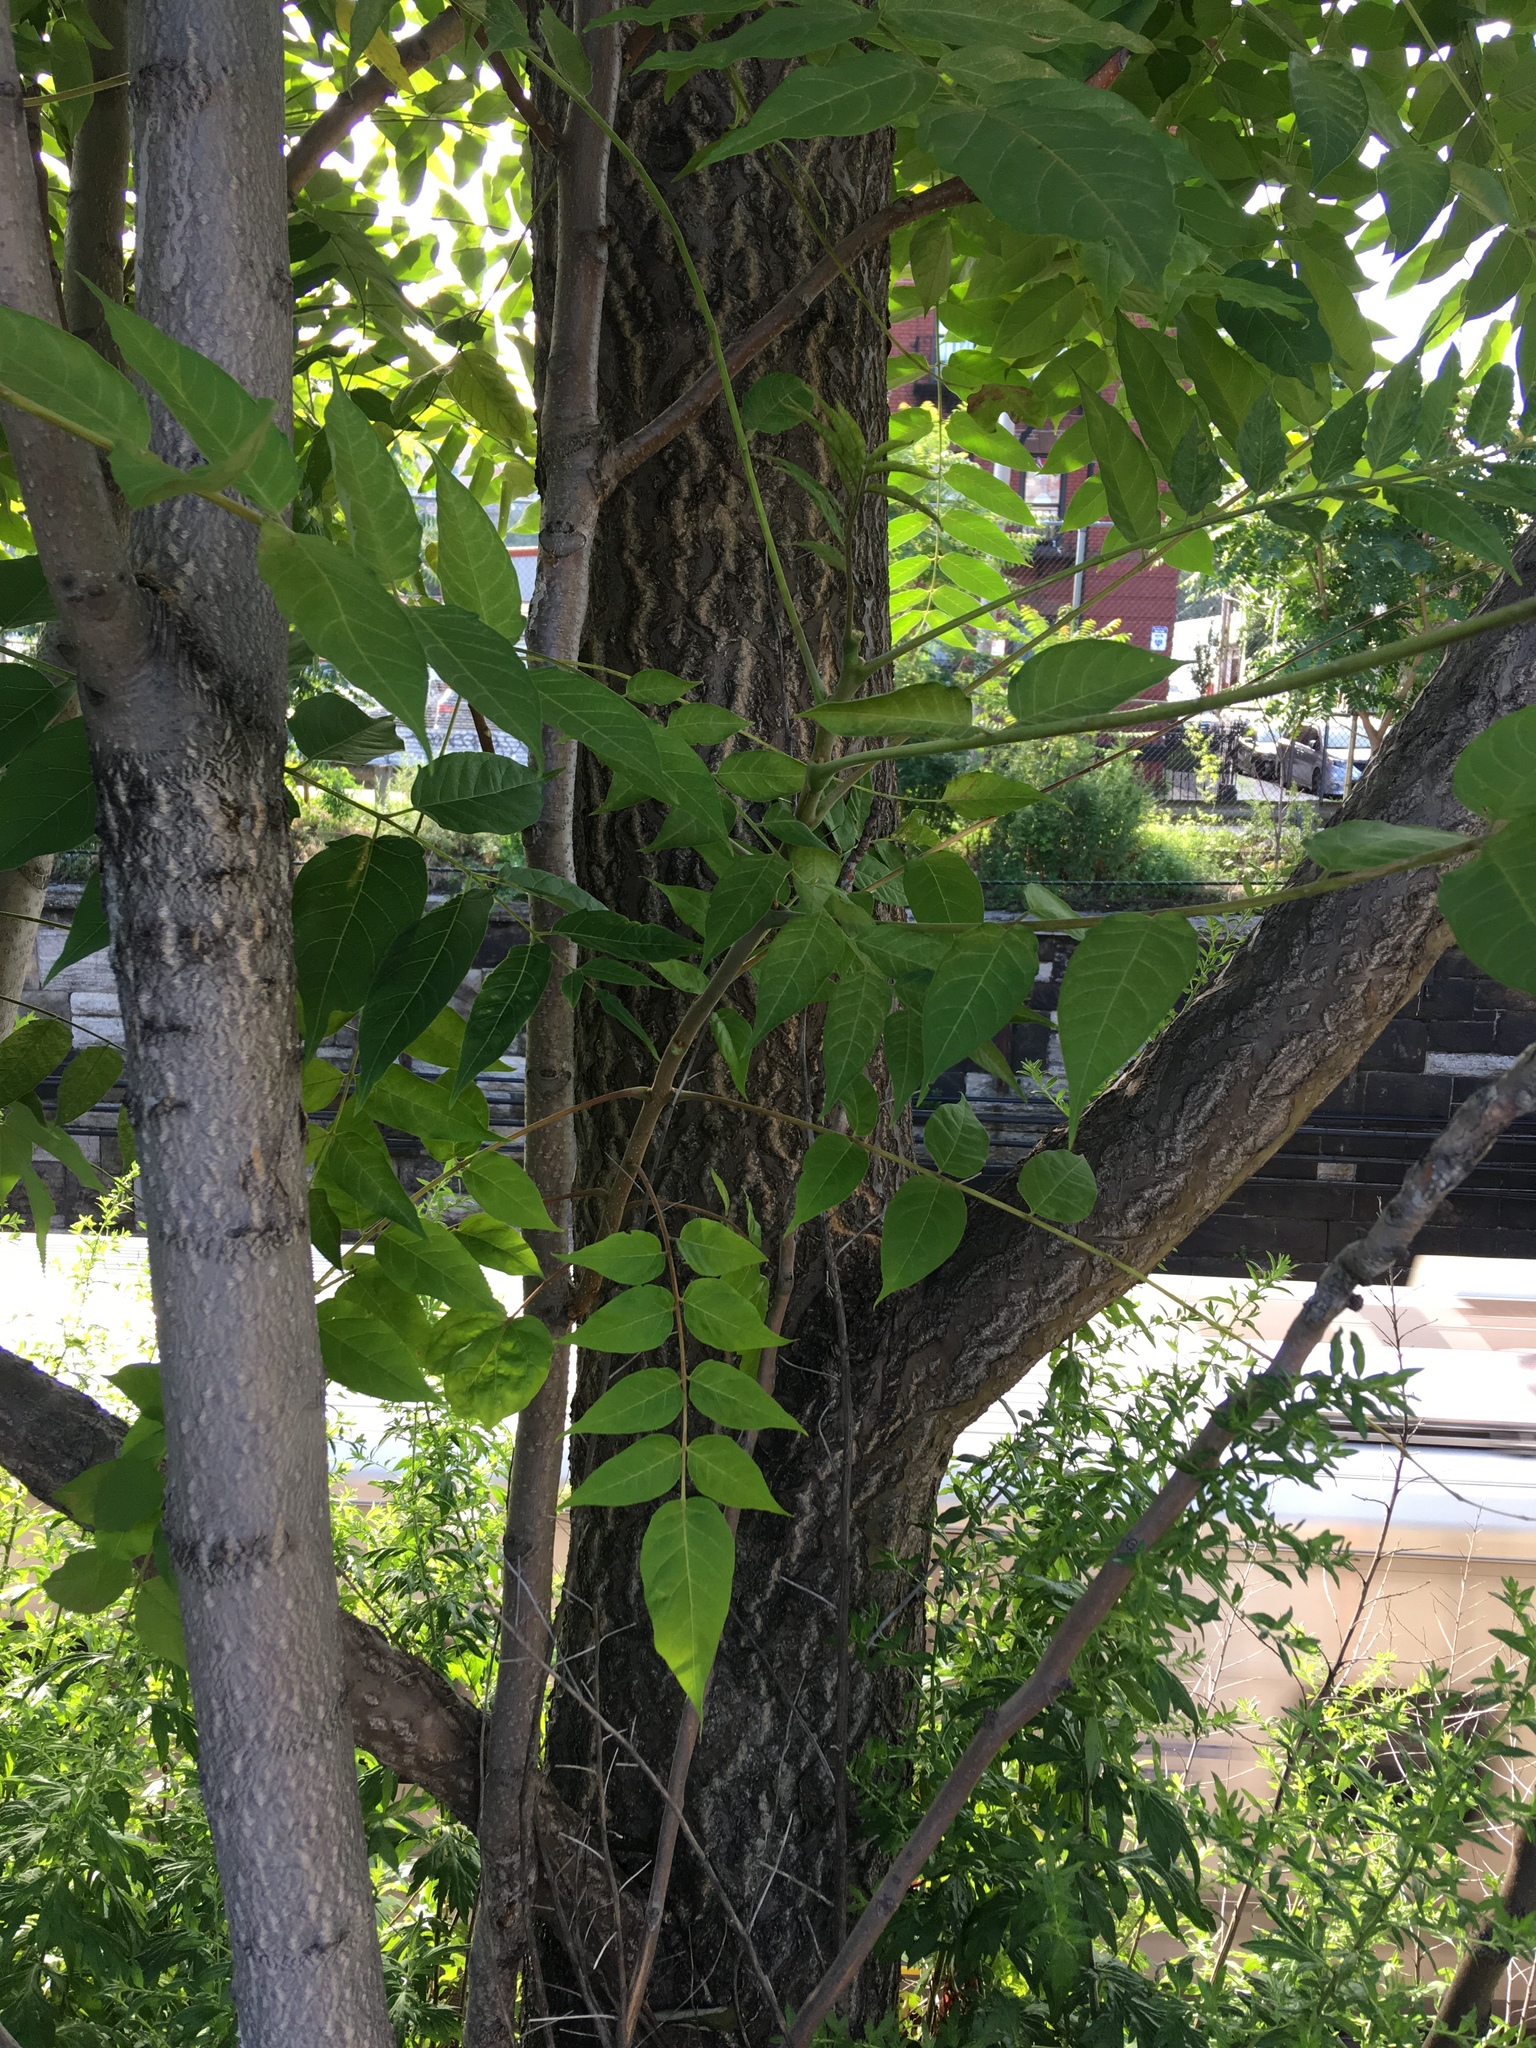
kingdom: Plantae
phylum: Tracheophyta
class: Magnoliopsida
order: Sapindales
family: Simaroubaceae
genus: Ailanthus
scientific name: Ailanthus altissima
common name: Tree-of-heaven
